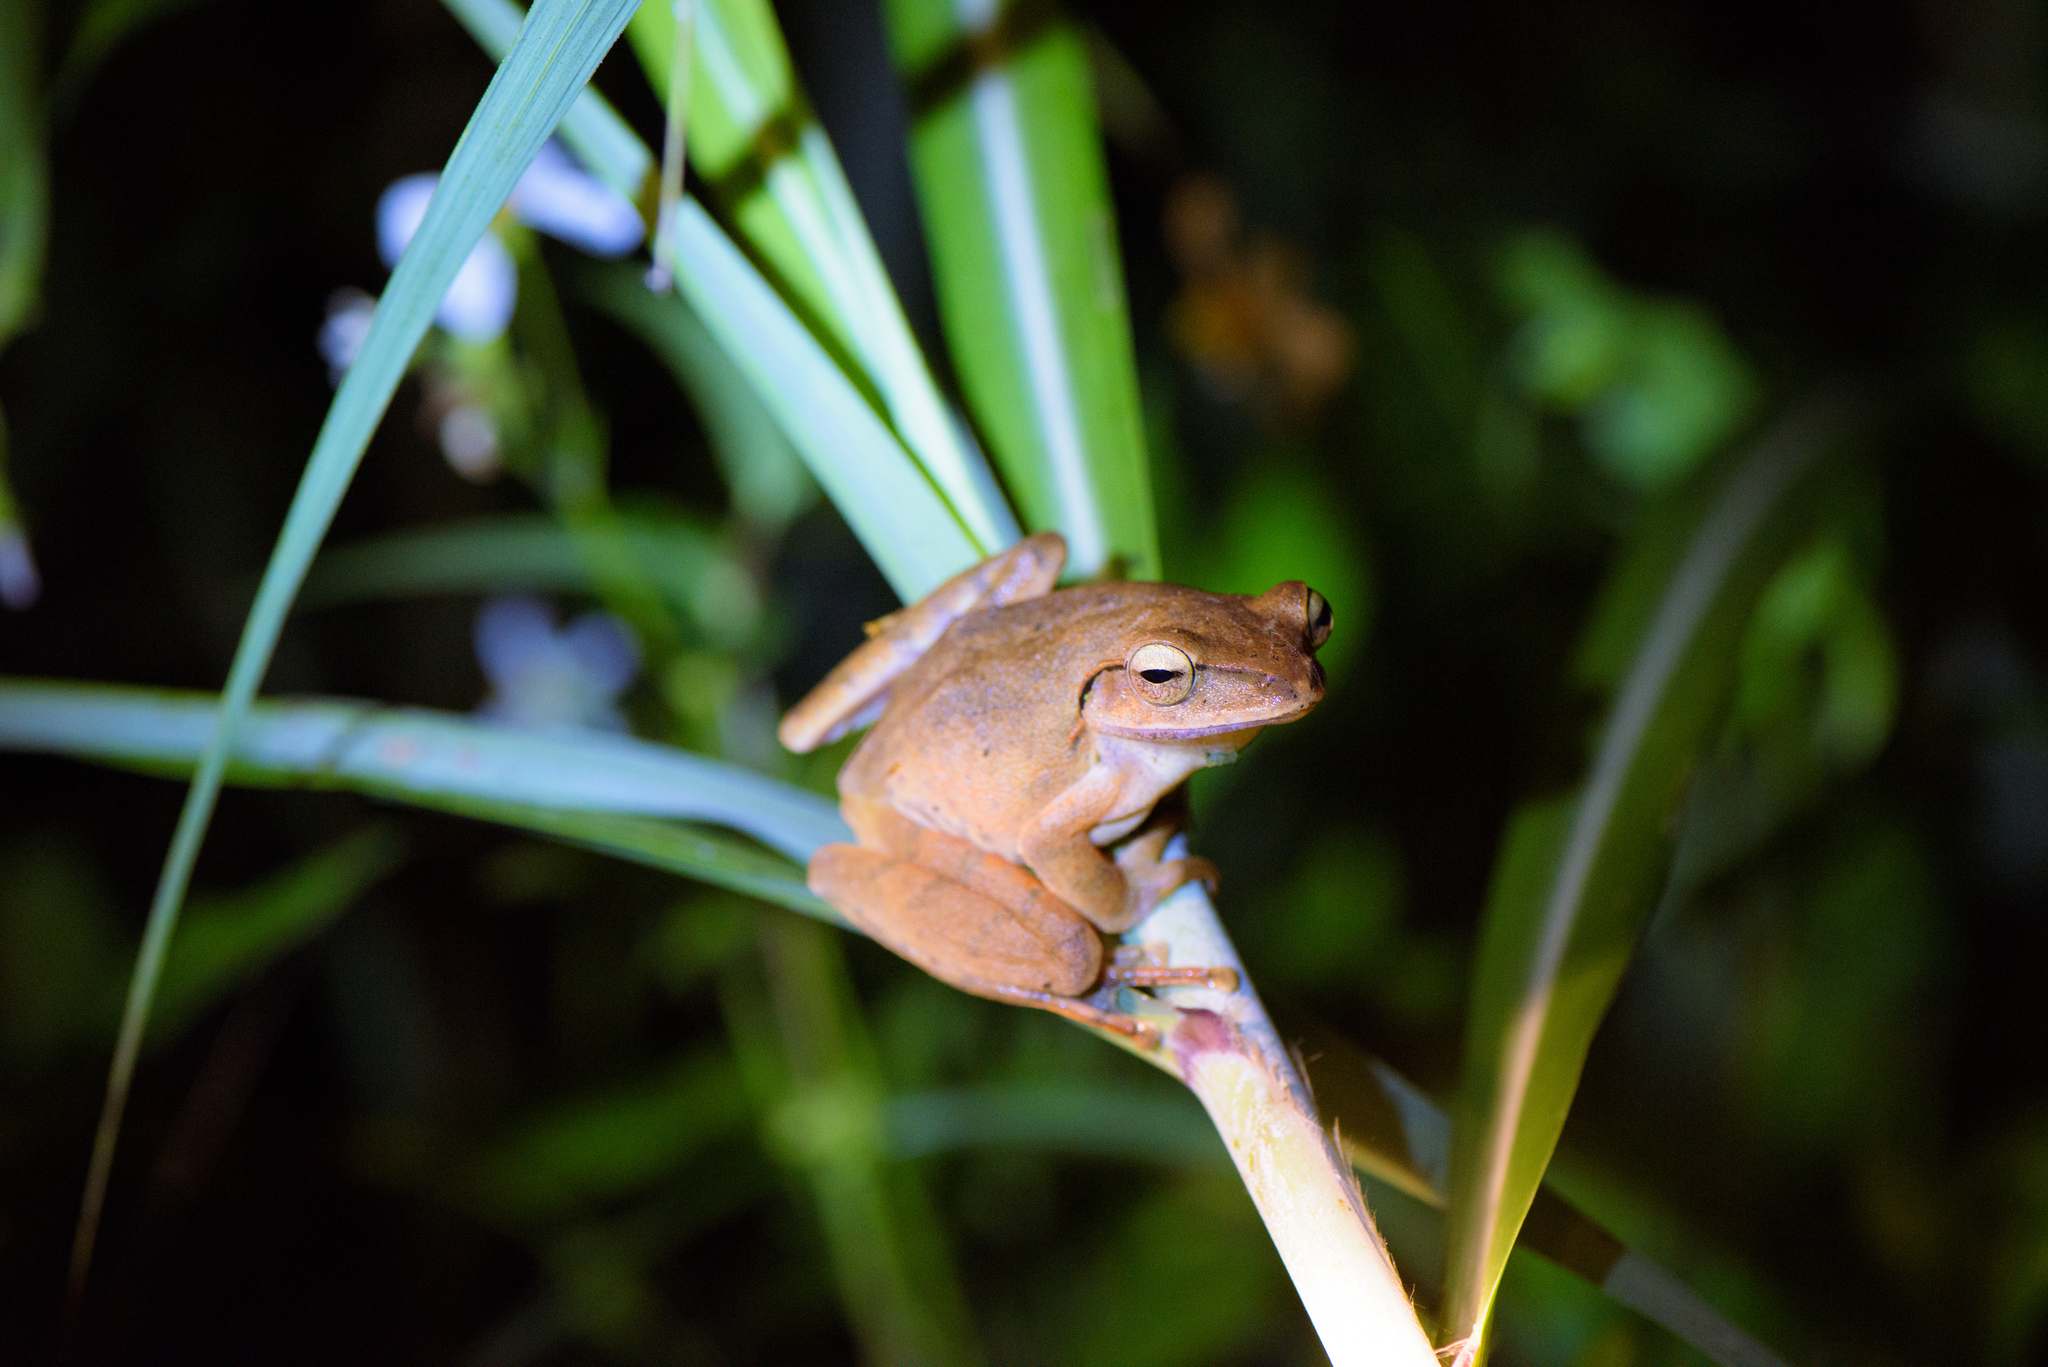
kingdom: Animalia
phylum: Chordata
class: Amphibia
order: Anura
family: Rhacophoridae
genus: Polypedates
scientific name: Polypedates braueri
